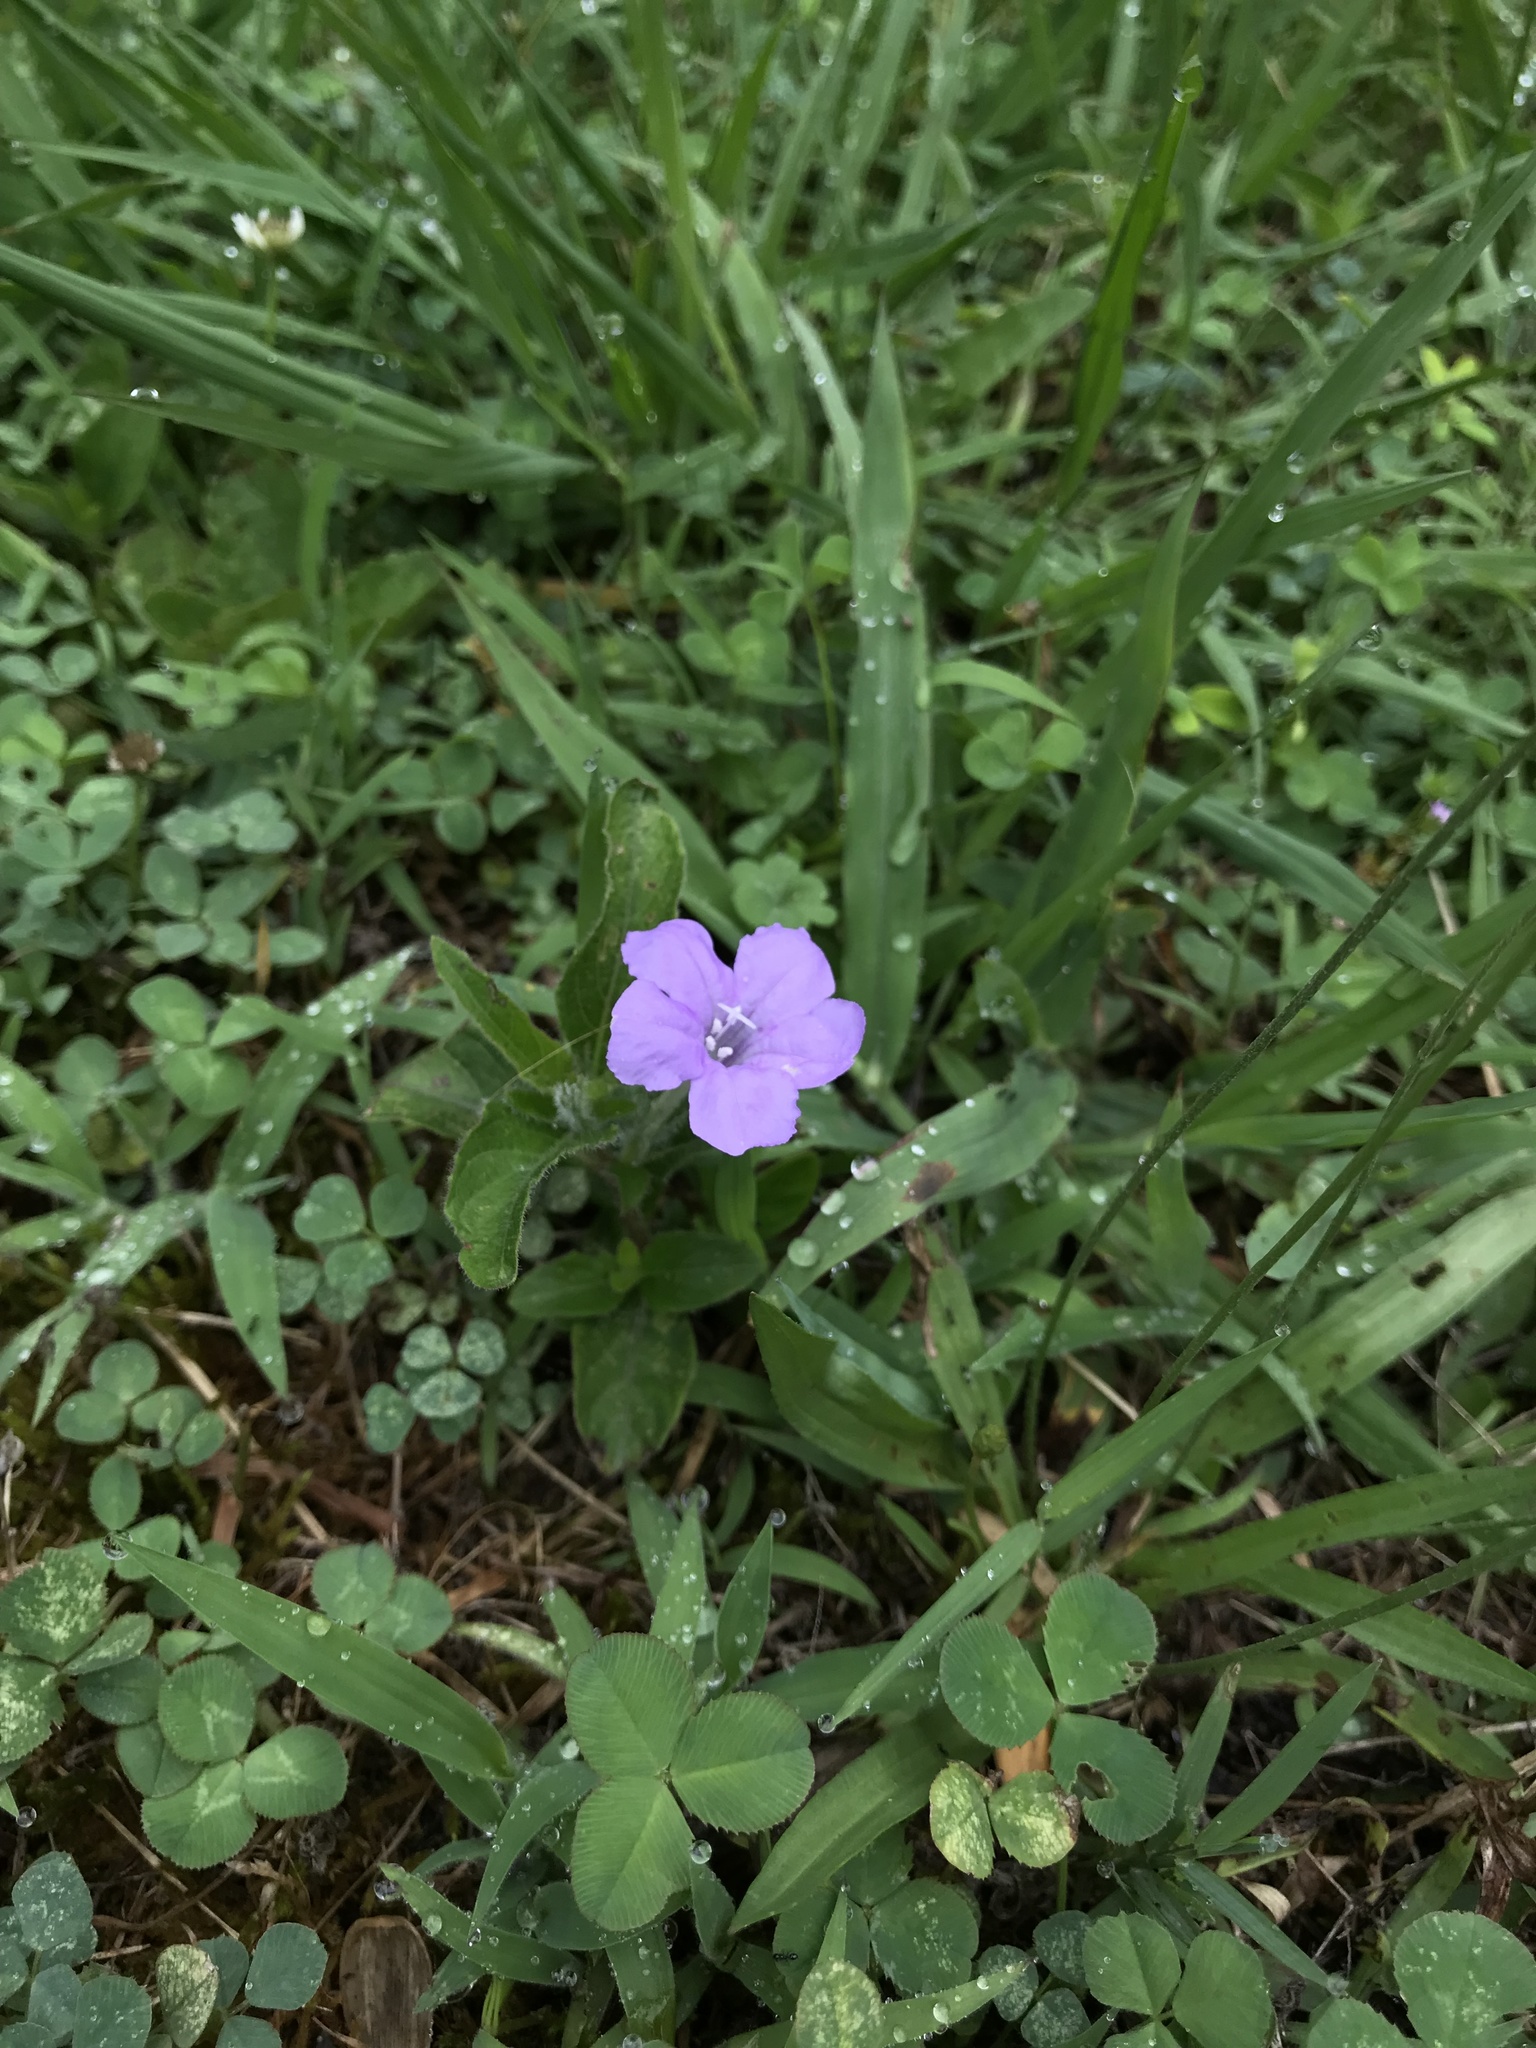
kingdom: Plantae
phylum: Tracheophyta
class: Magnoliopsida
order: Lamiales
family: Acanthaceae
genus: Ruellia
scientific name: Ruellia caroliniensis
